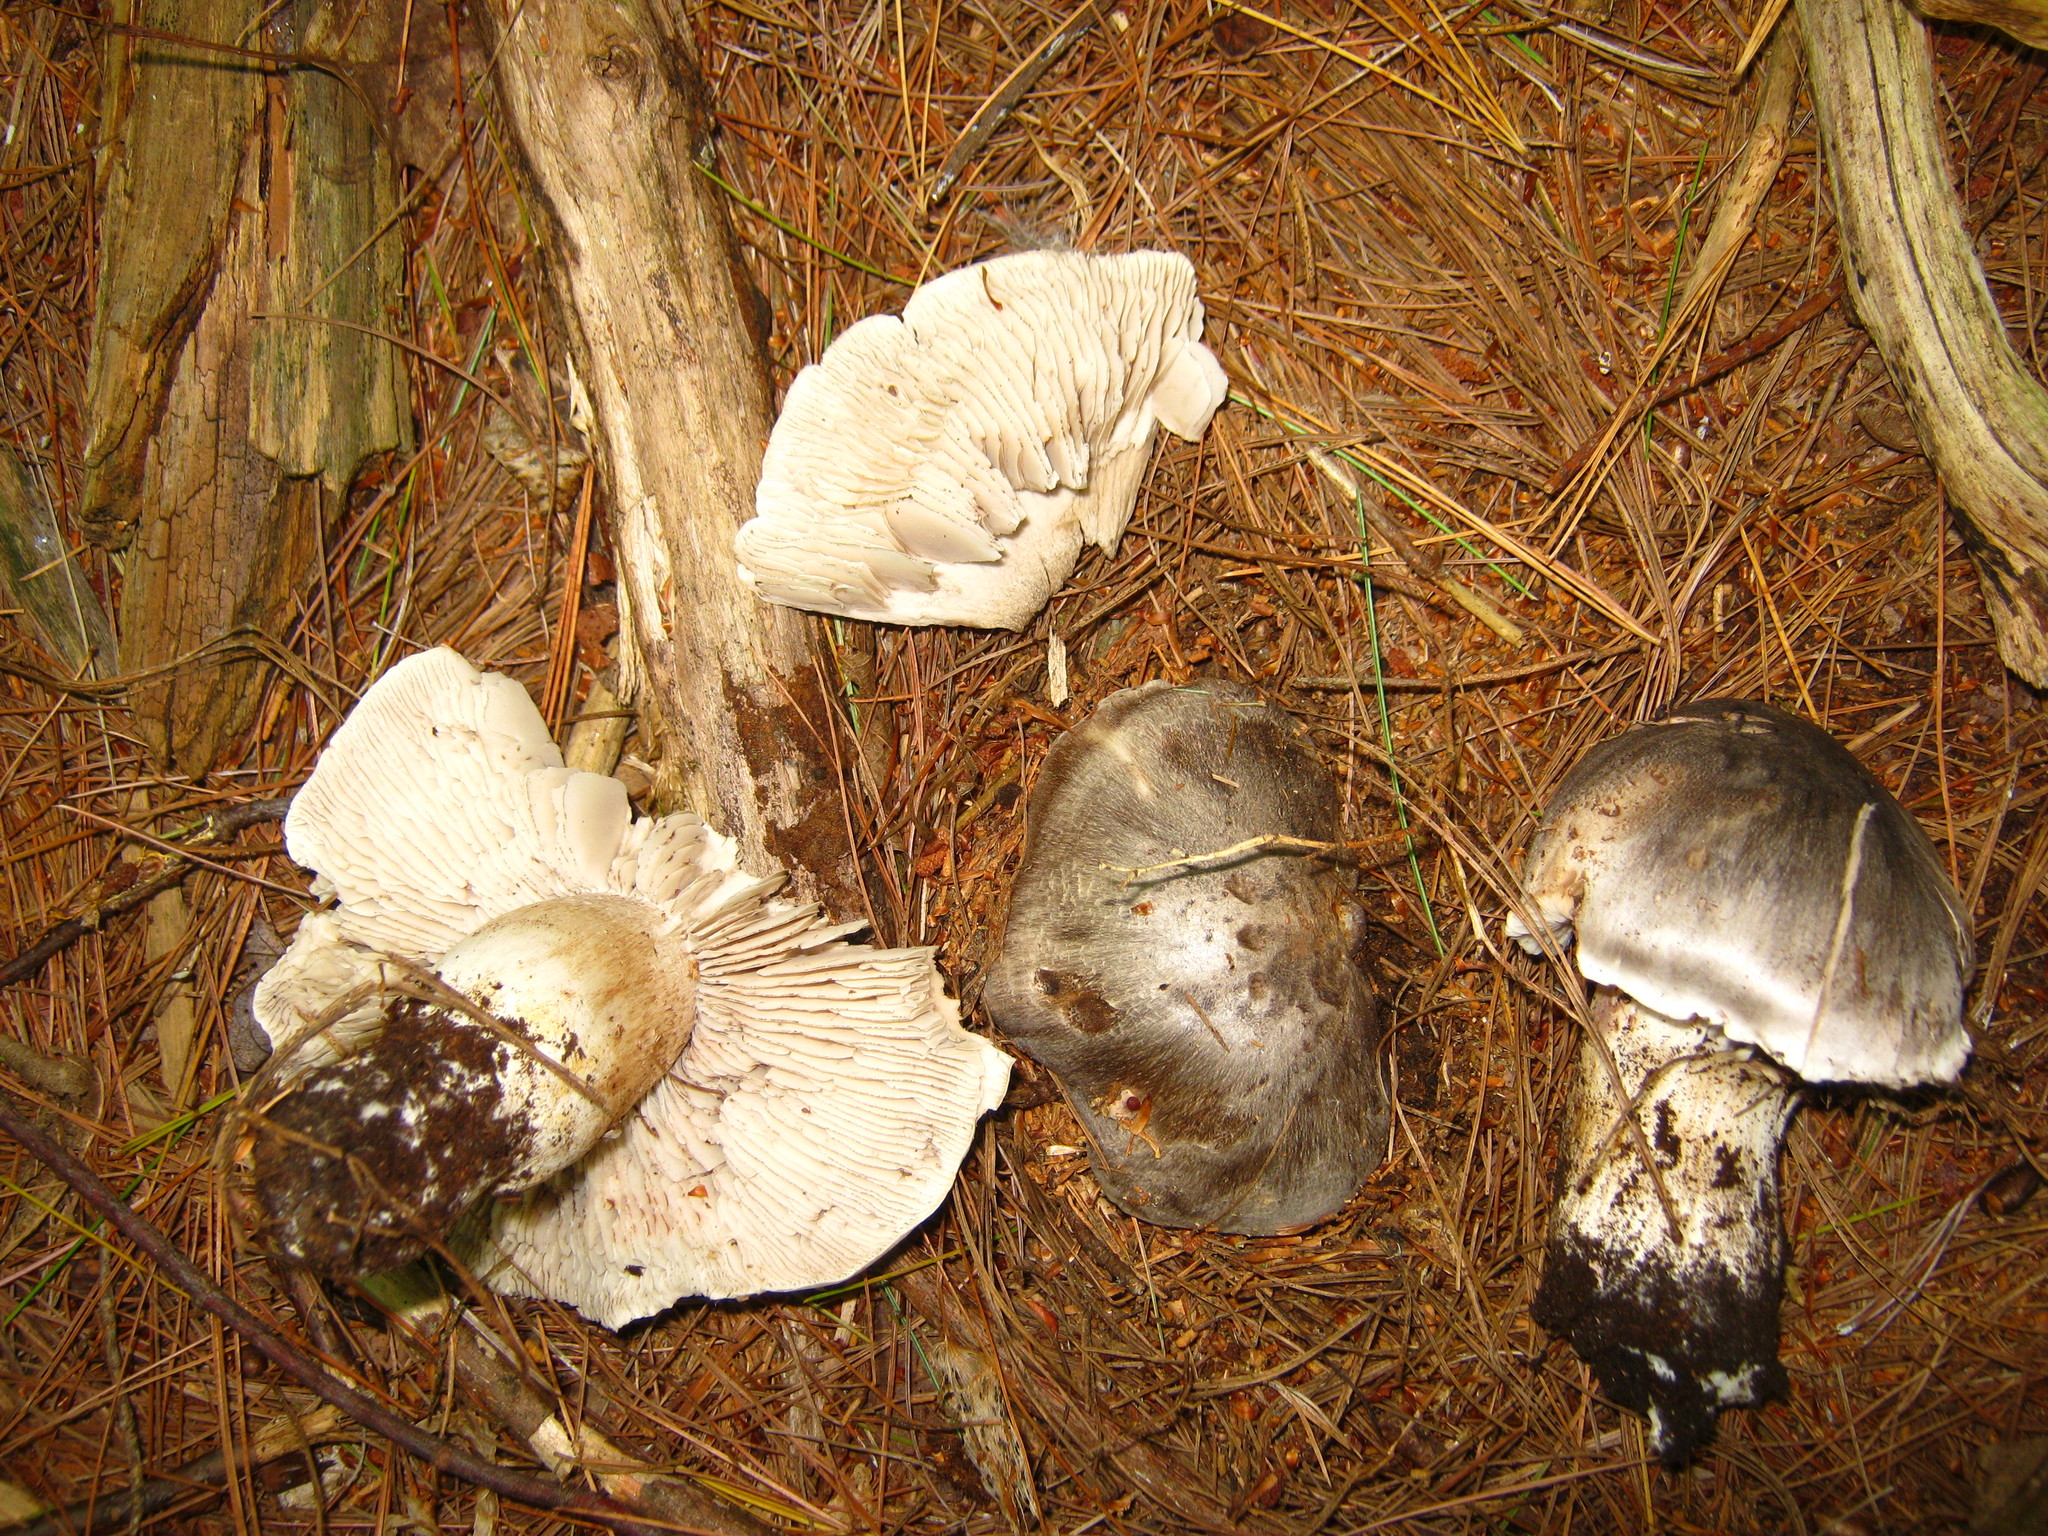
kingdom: Fungi
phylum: Basidiomycota
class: Agaricomycetes
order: Agaricales
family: Tricholomataceae
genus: Tricholoma
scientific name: Tricholoma virgatum
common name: Ashen knight
